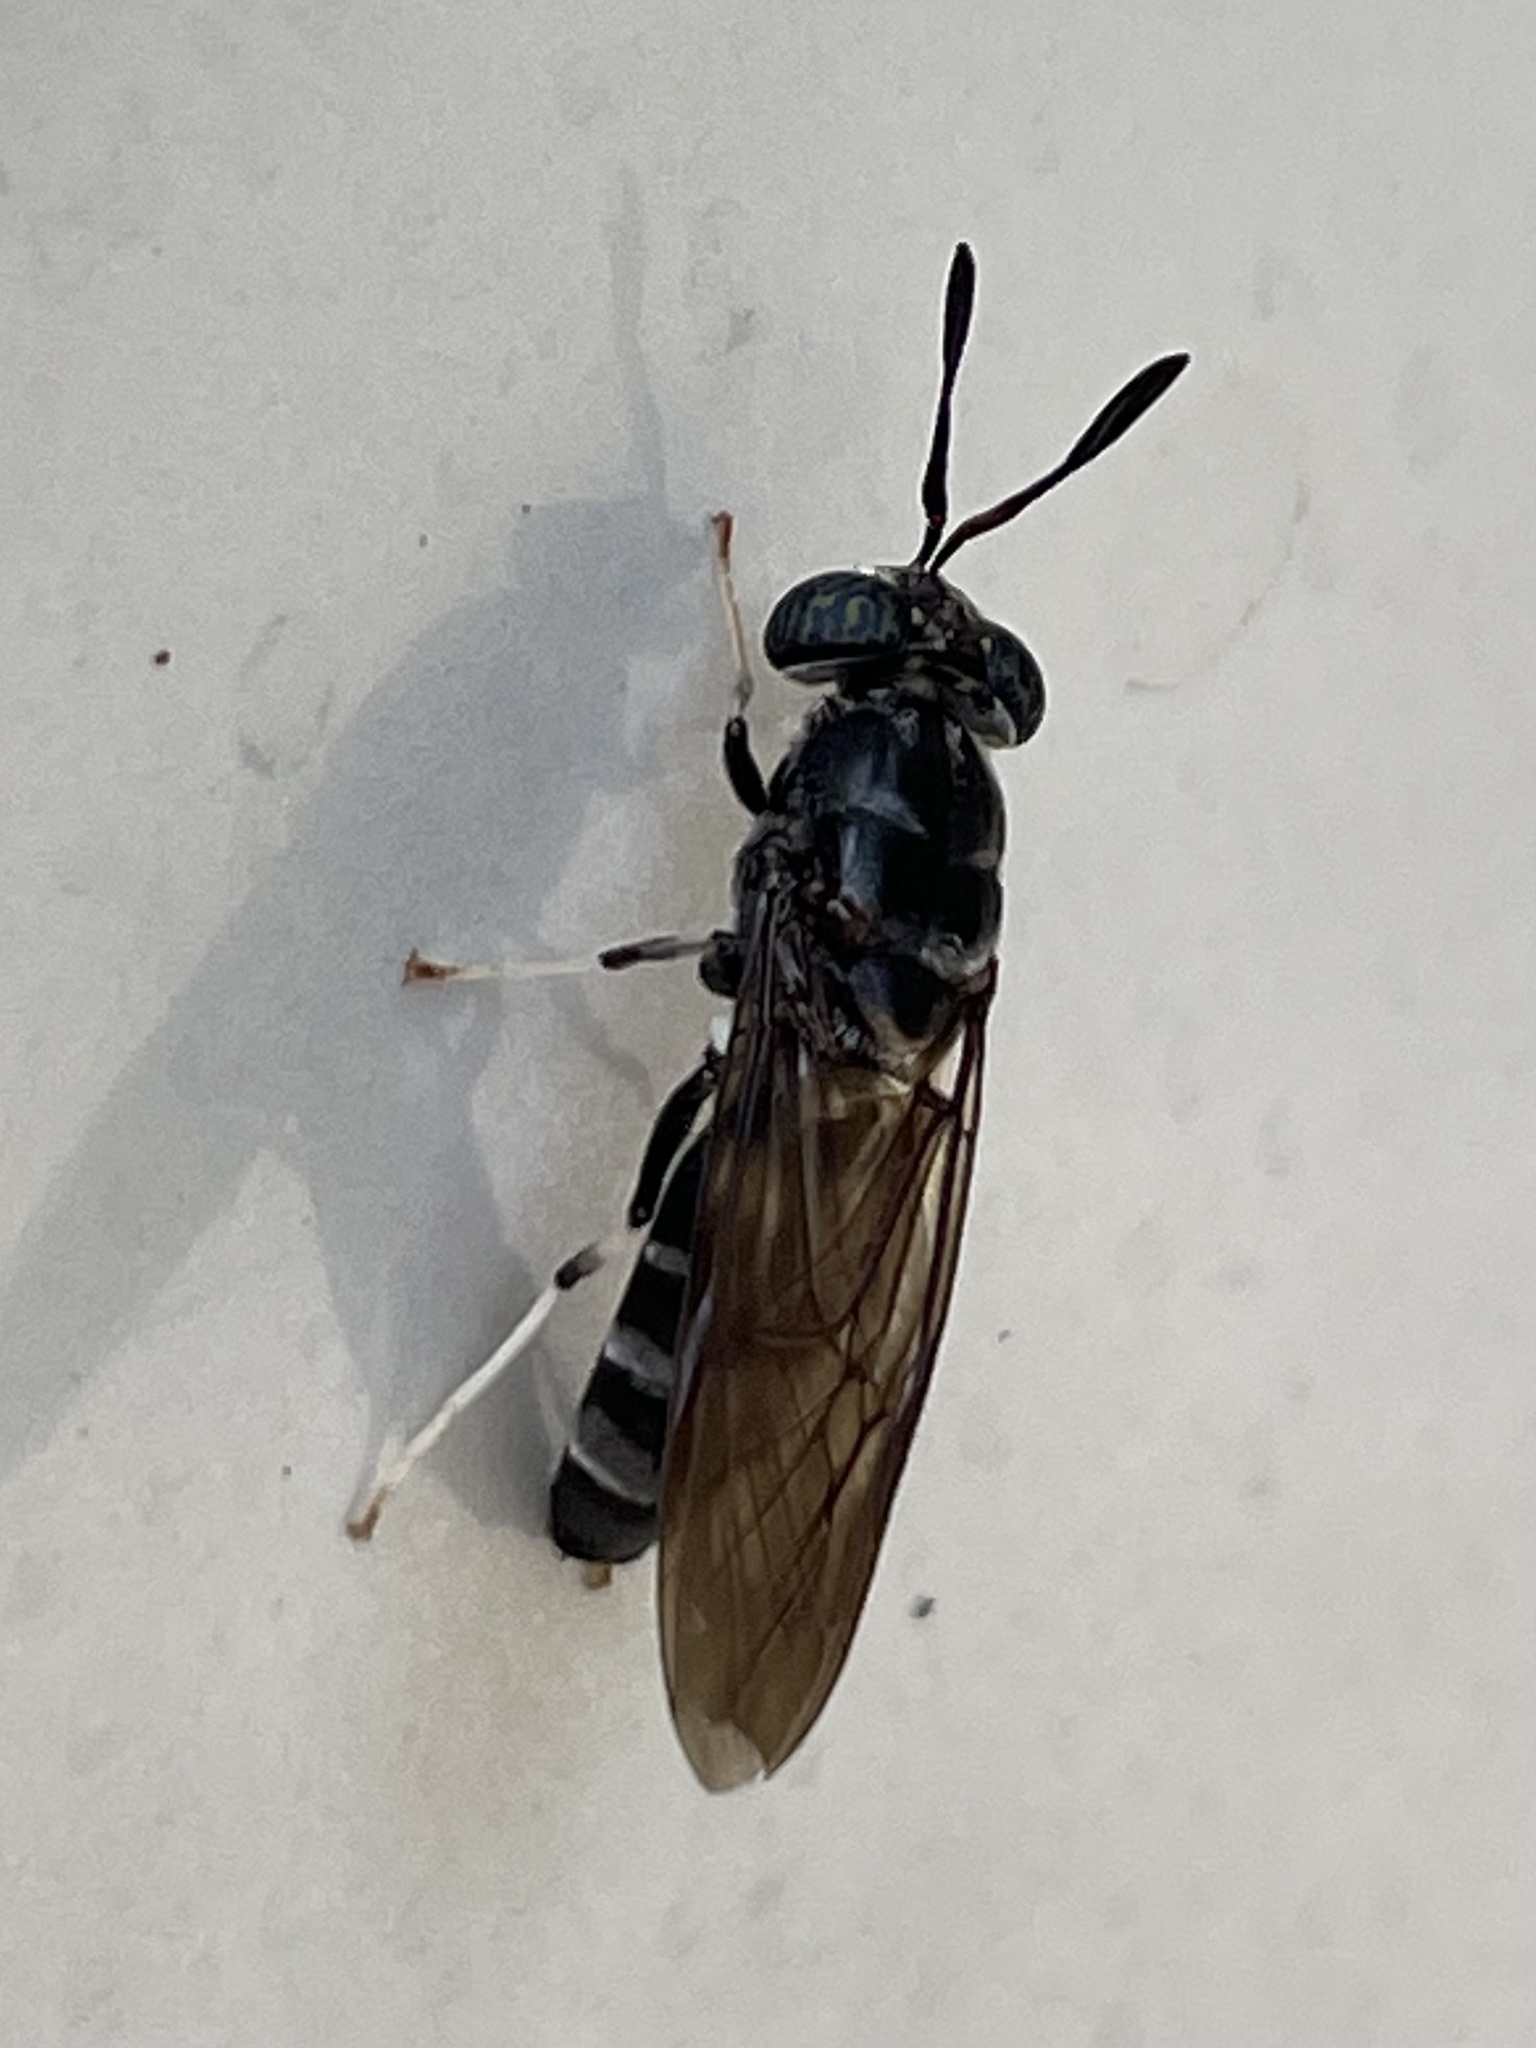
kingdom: Animalia
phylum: Arthropoda
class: Insecta
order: Diptera
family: Stratiomyidae
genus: Hermetia
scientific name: Hermetia illucens
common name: Black soldier fly
